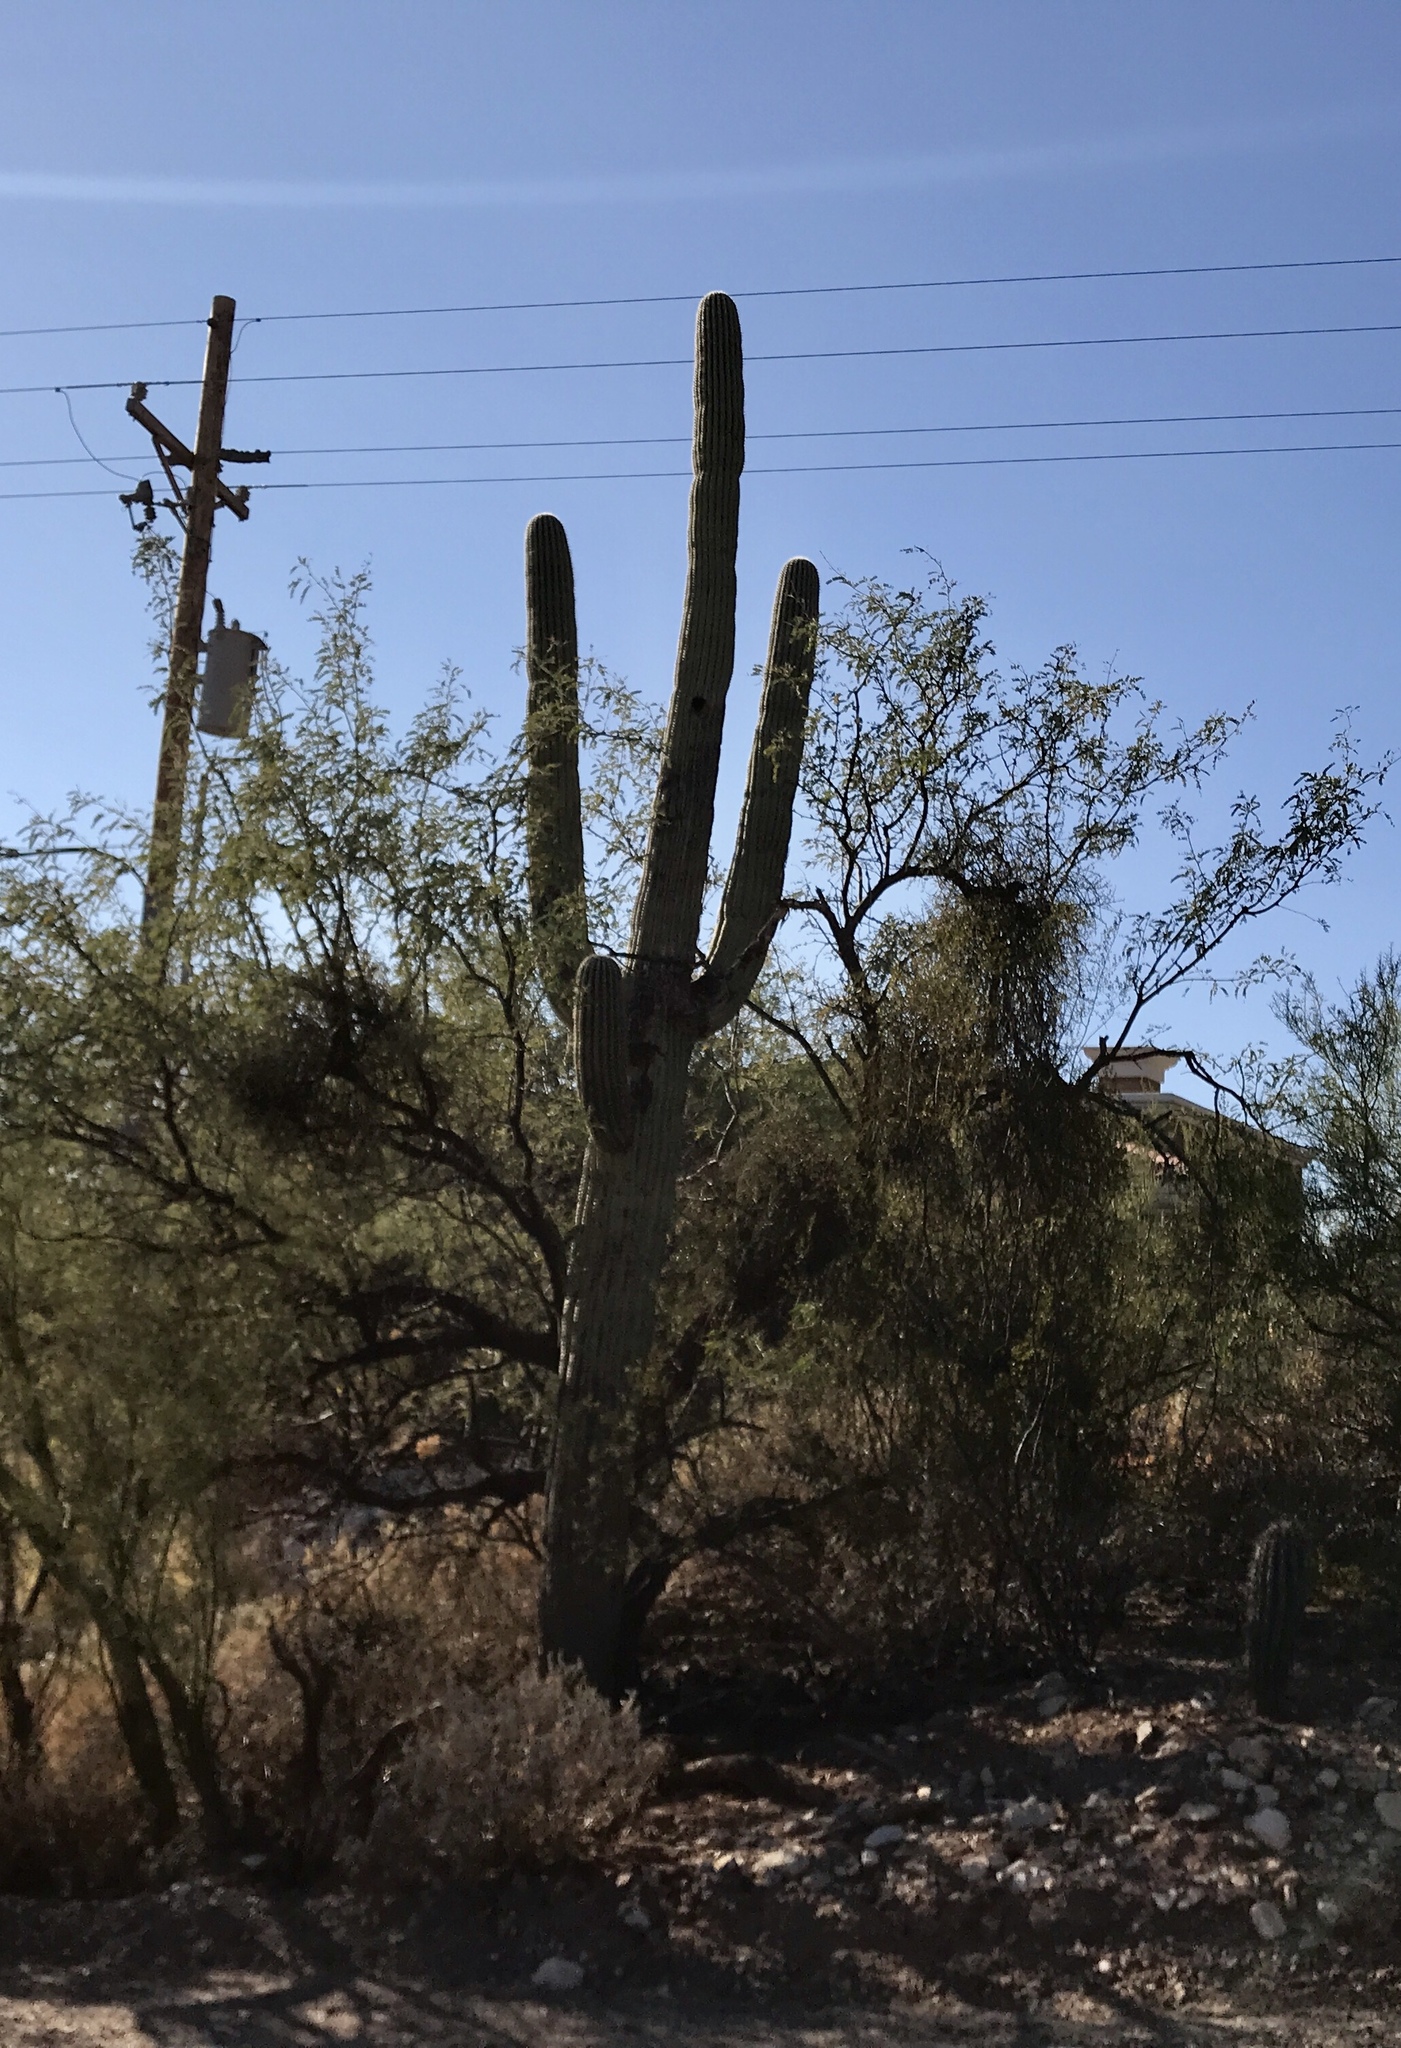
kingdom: Plantae
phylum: Tracheophyta
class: Magnoliopsida
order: Caryophyllales
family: Cactaceae
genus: Carnegiea
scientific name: Carnegiea gigantea
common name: Saguaro
